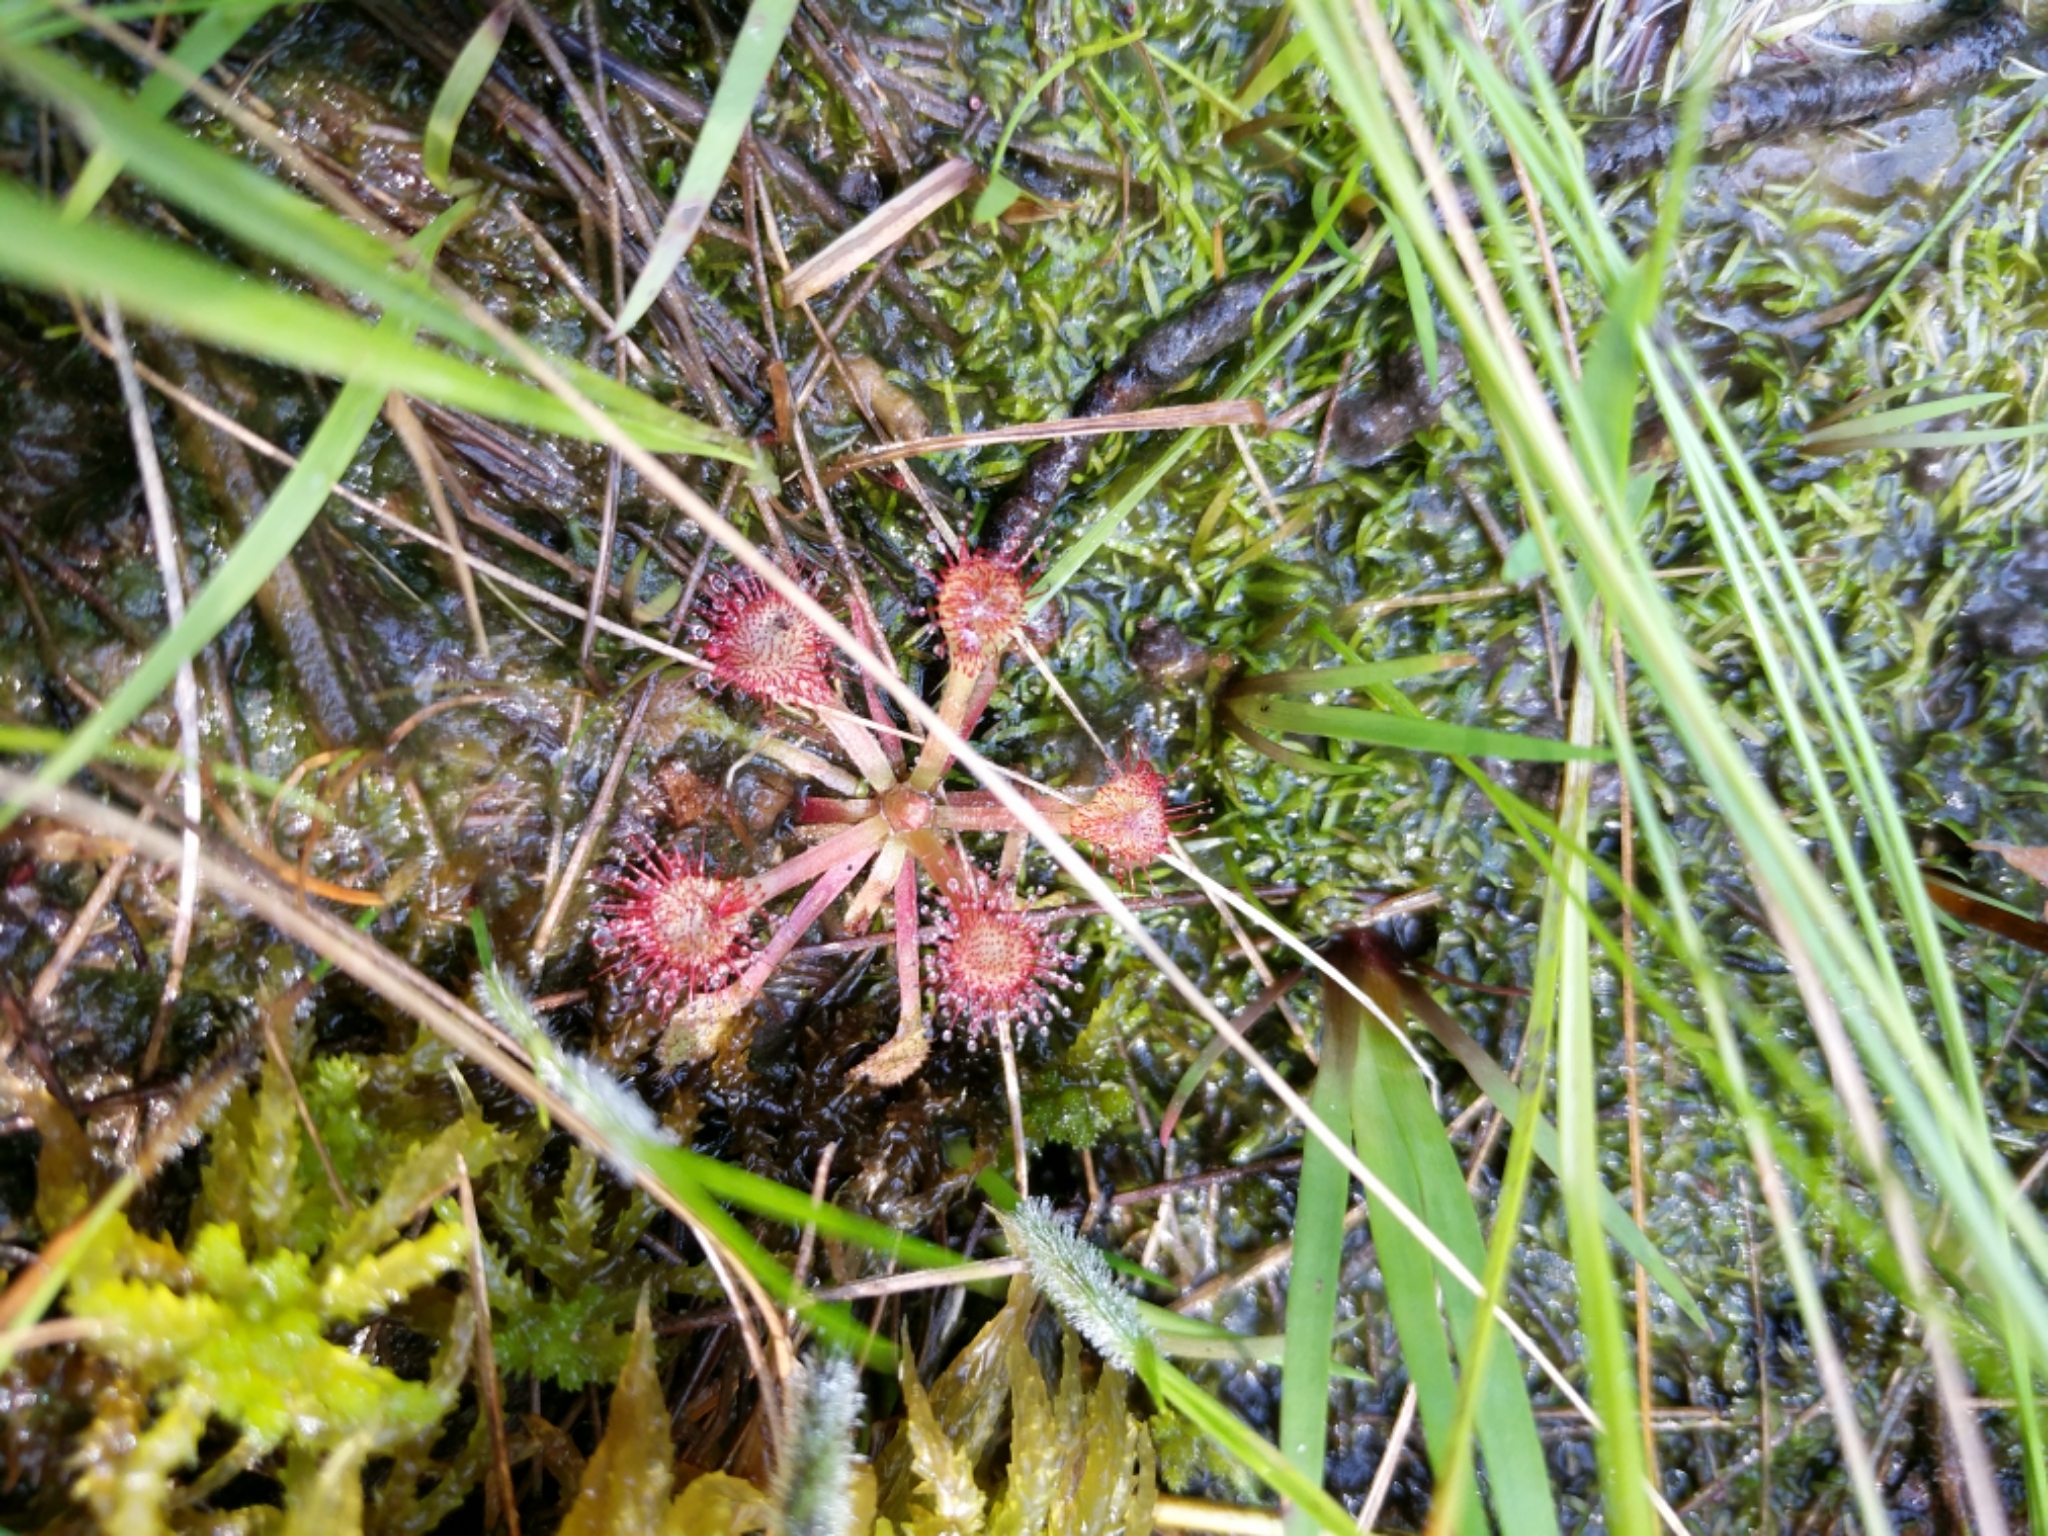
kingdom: Plantae
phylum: Tracheophyta
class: Magnoliopsida
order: Caryophyllales
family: Droseraceae
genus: Drosera
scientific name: Drosera capillaris
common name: Pink sundew
